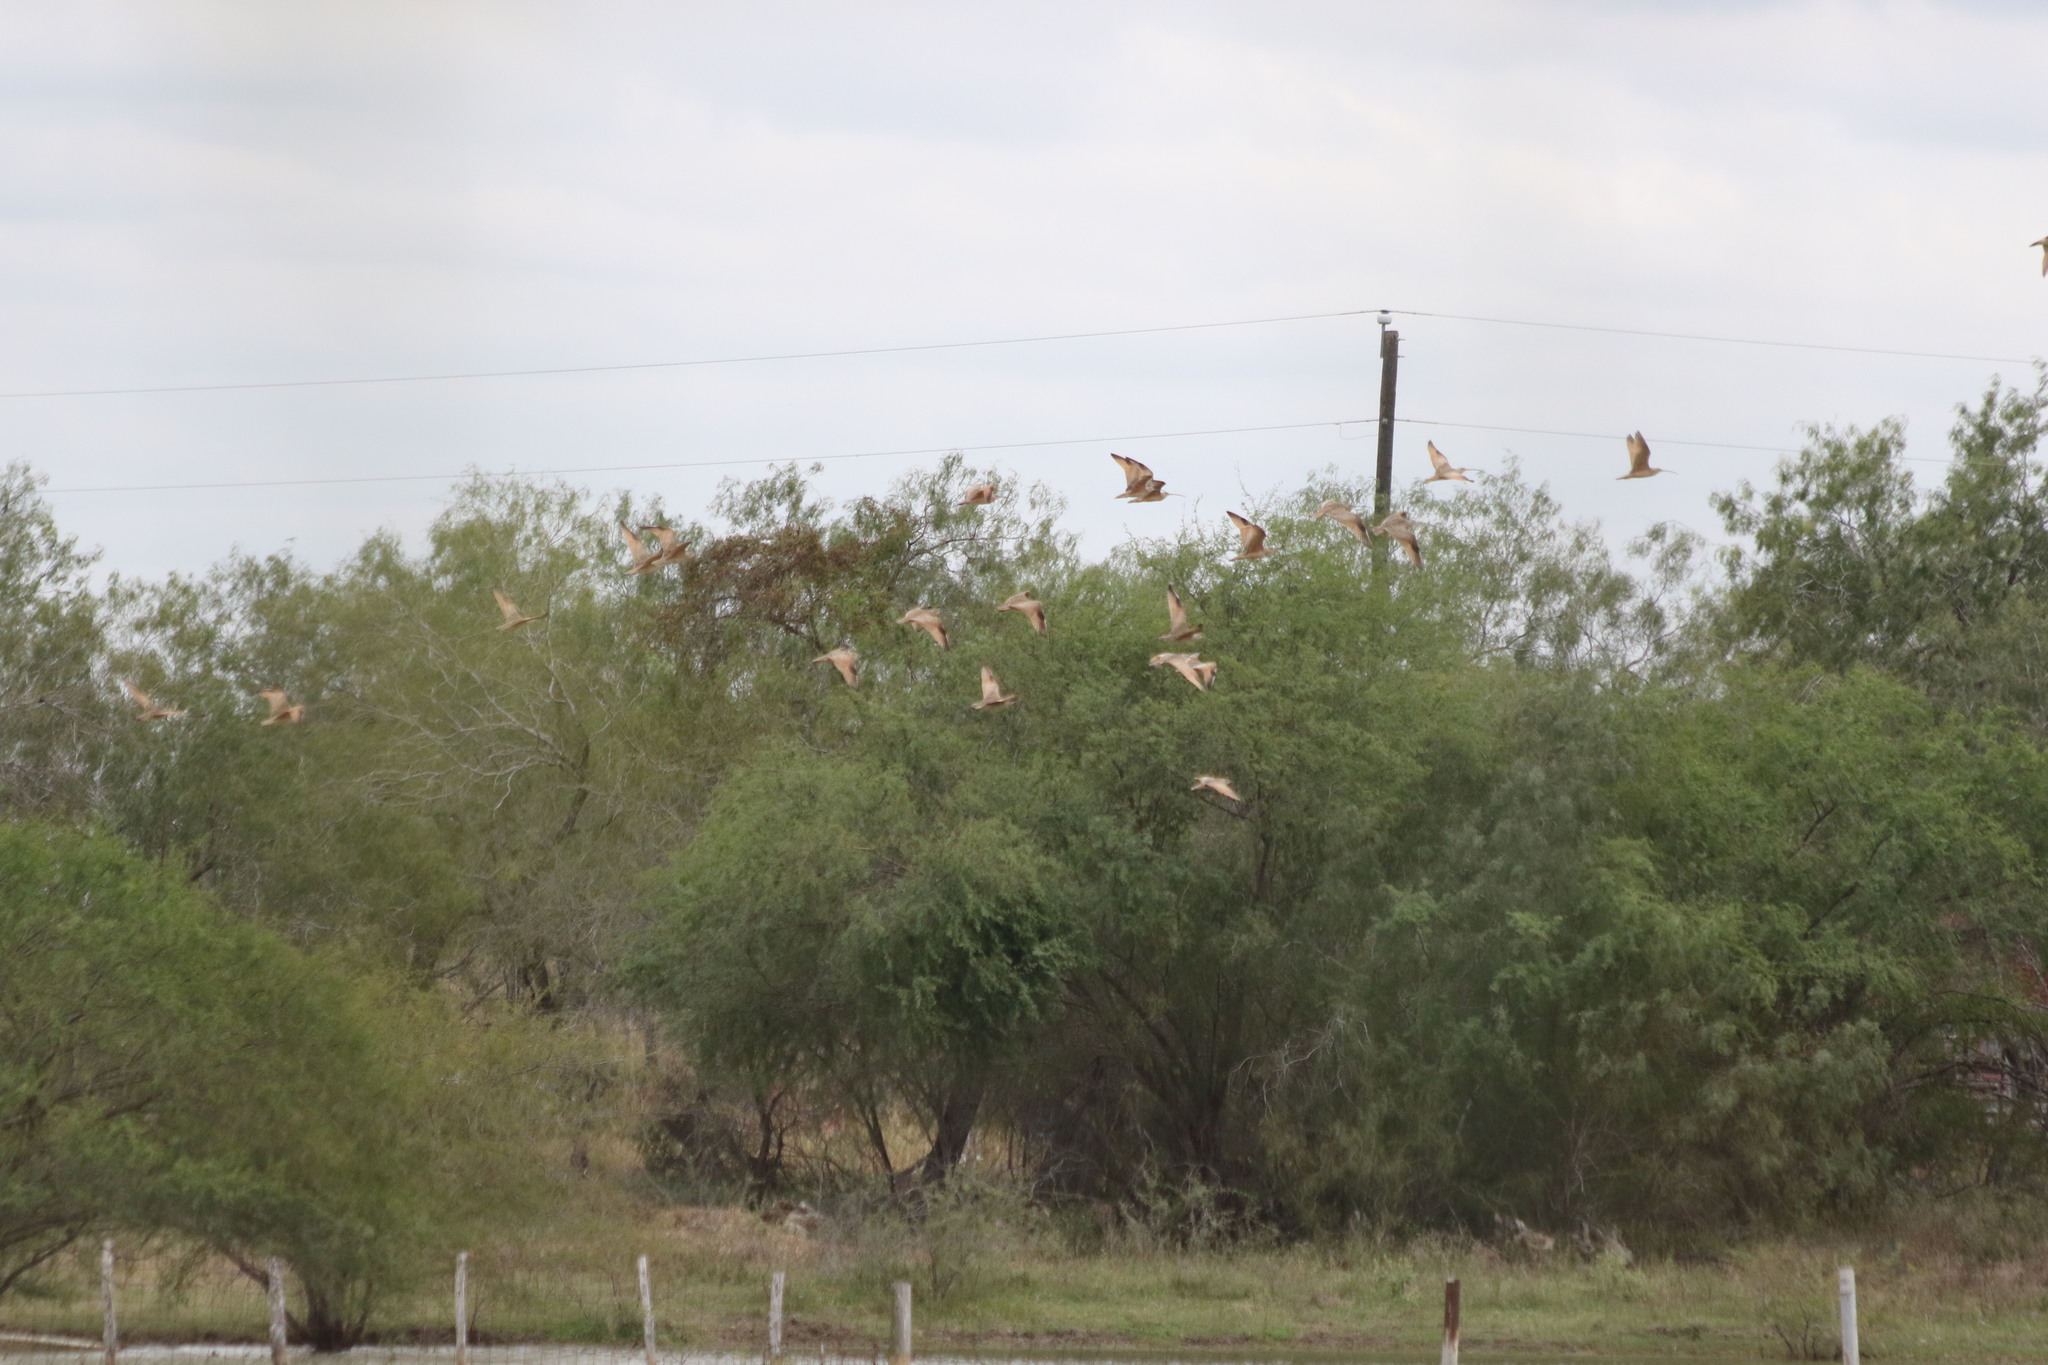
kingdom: Animalia
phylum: Chordata
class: Aves
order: Charadriiformes
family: Scolopacidae
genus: Numenius
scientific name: Numenius americanus
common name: Long-billed curlew
